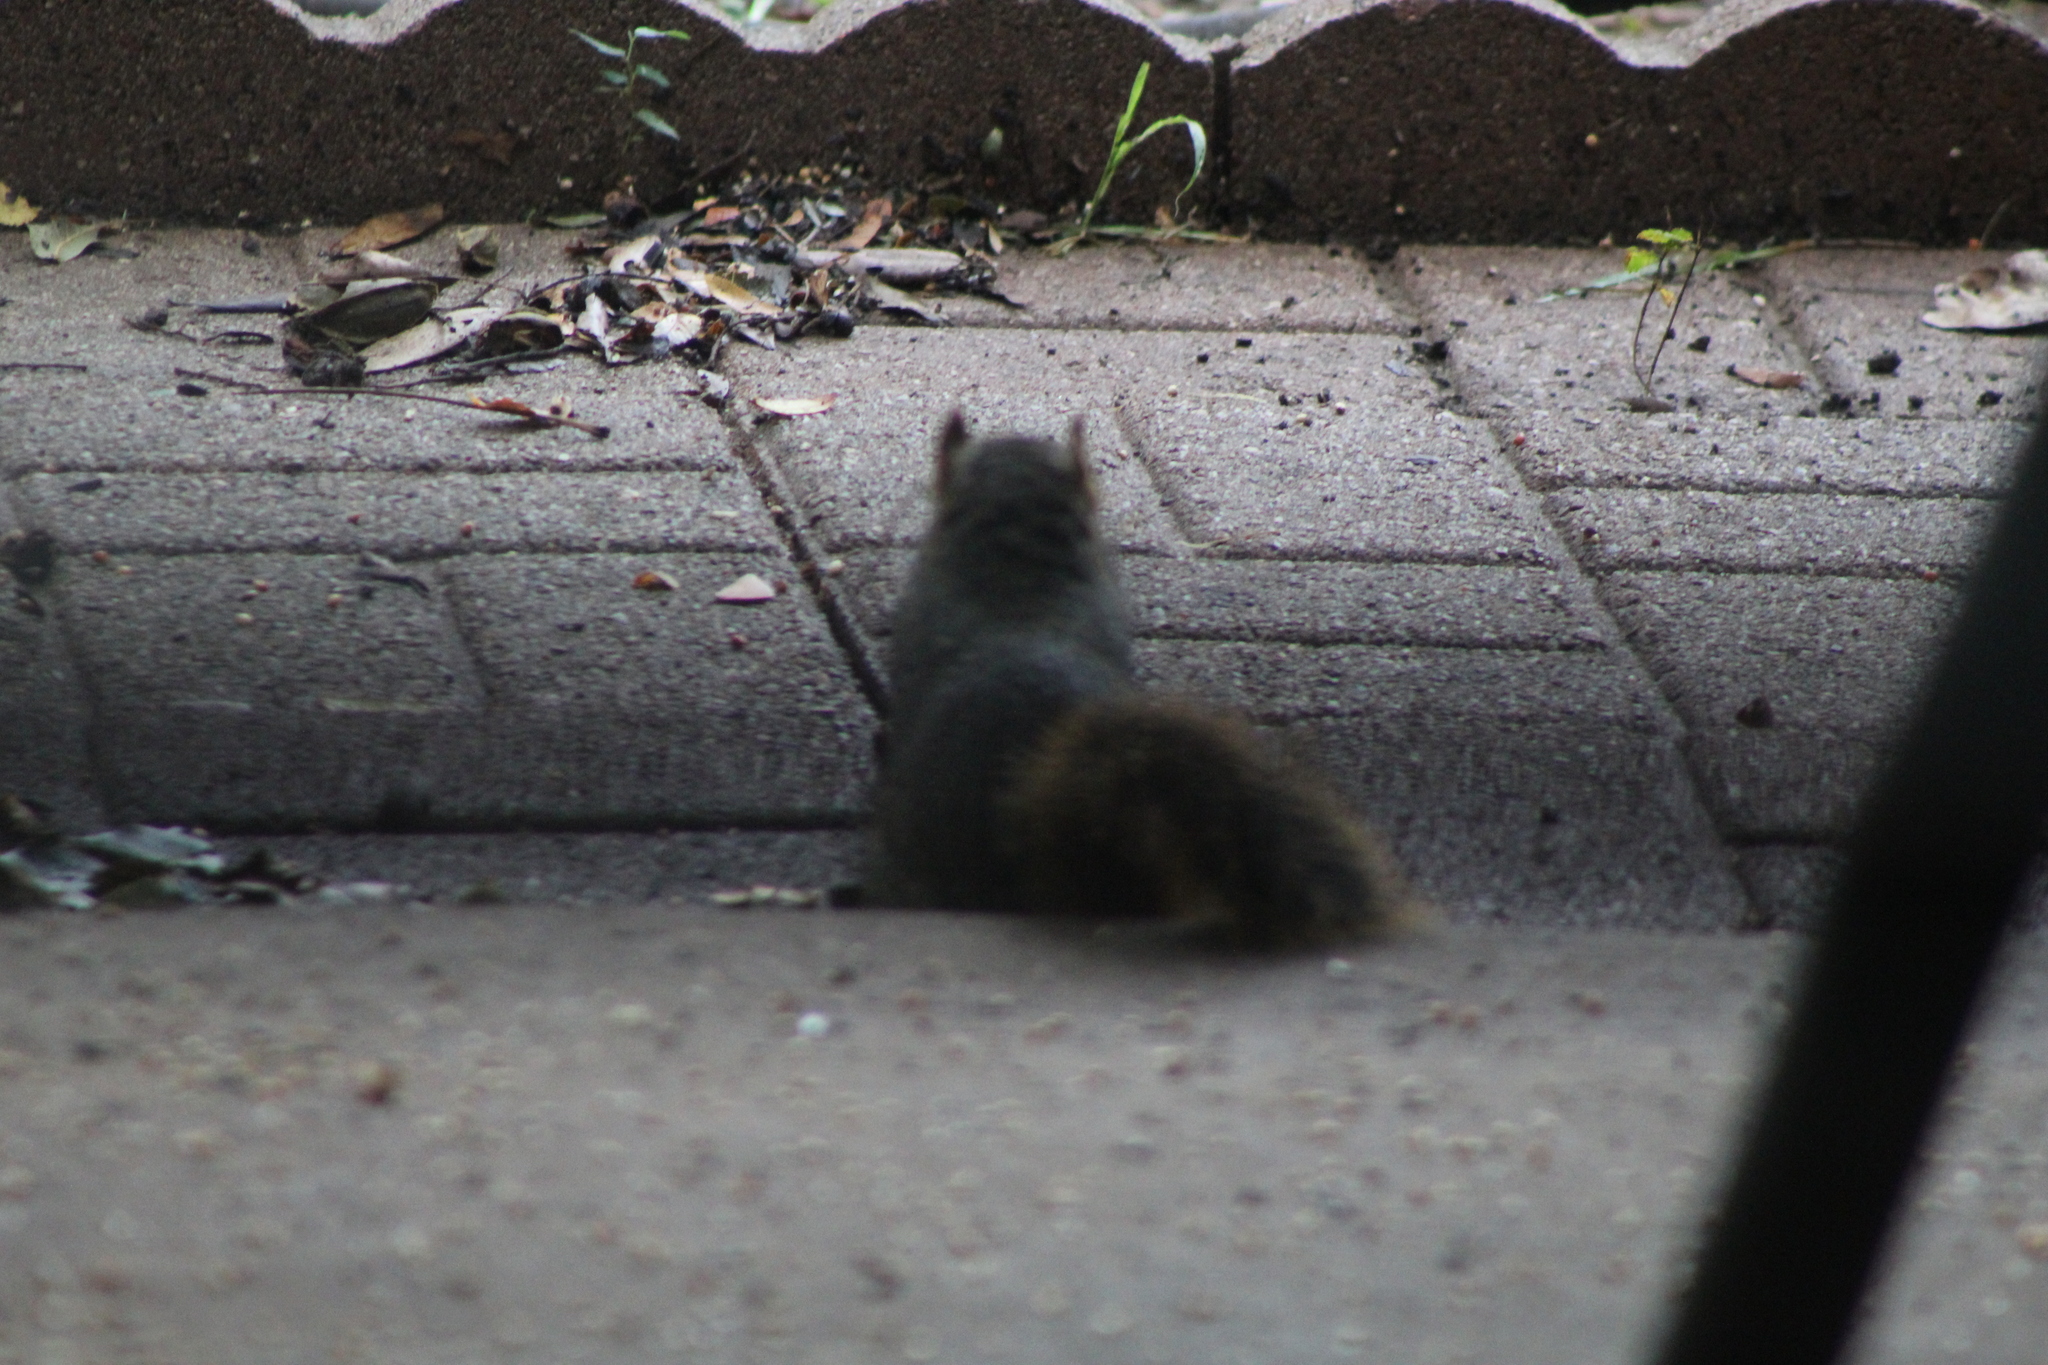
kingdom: Animalia
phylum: Chordata
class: Mammalia
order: Rodentia
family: Sciuridae
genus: Sciurus
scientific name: Sciurus niger
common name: Fox squirrel
